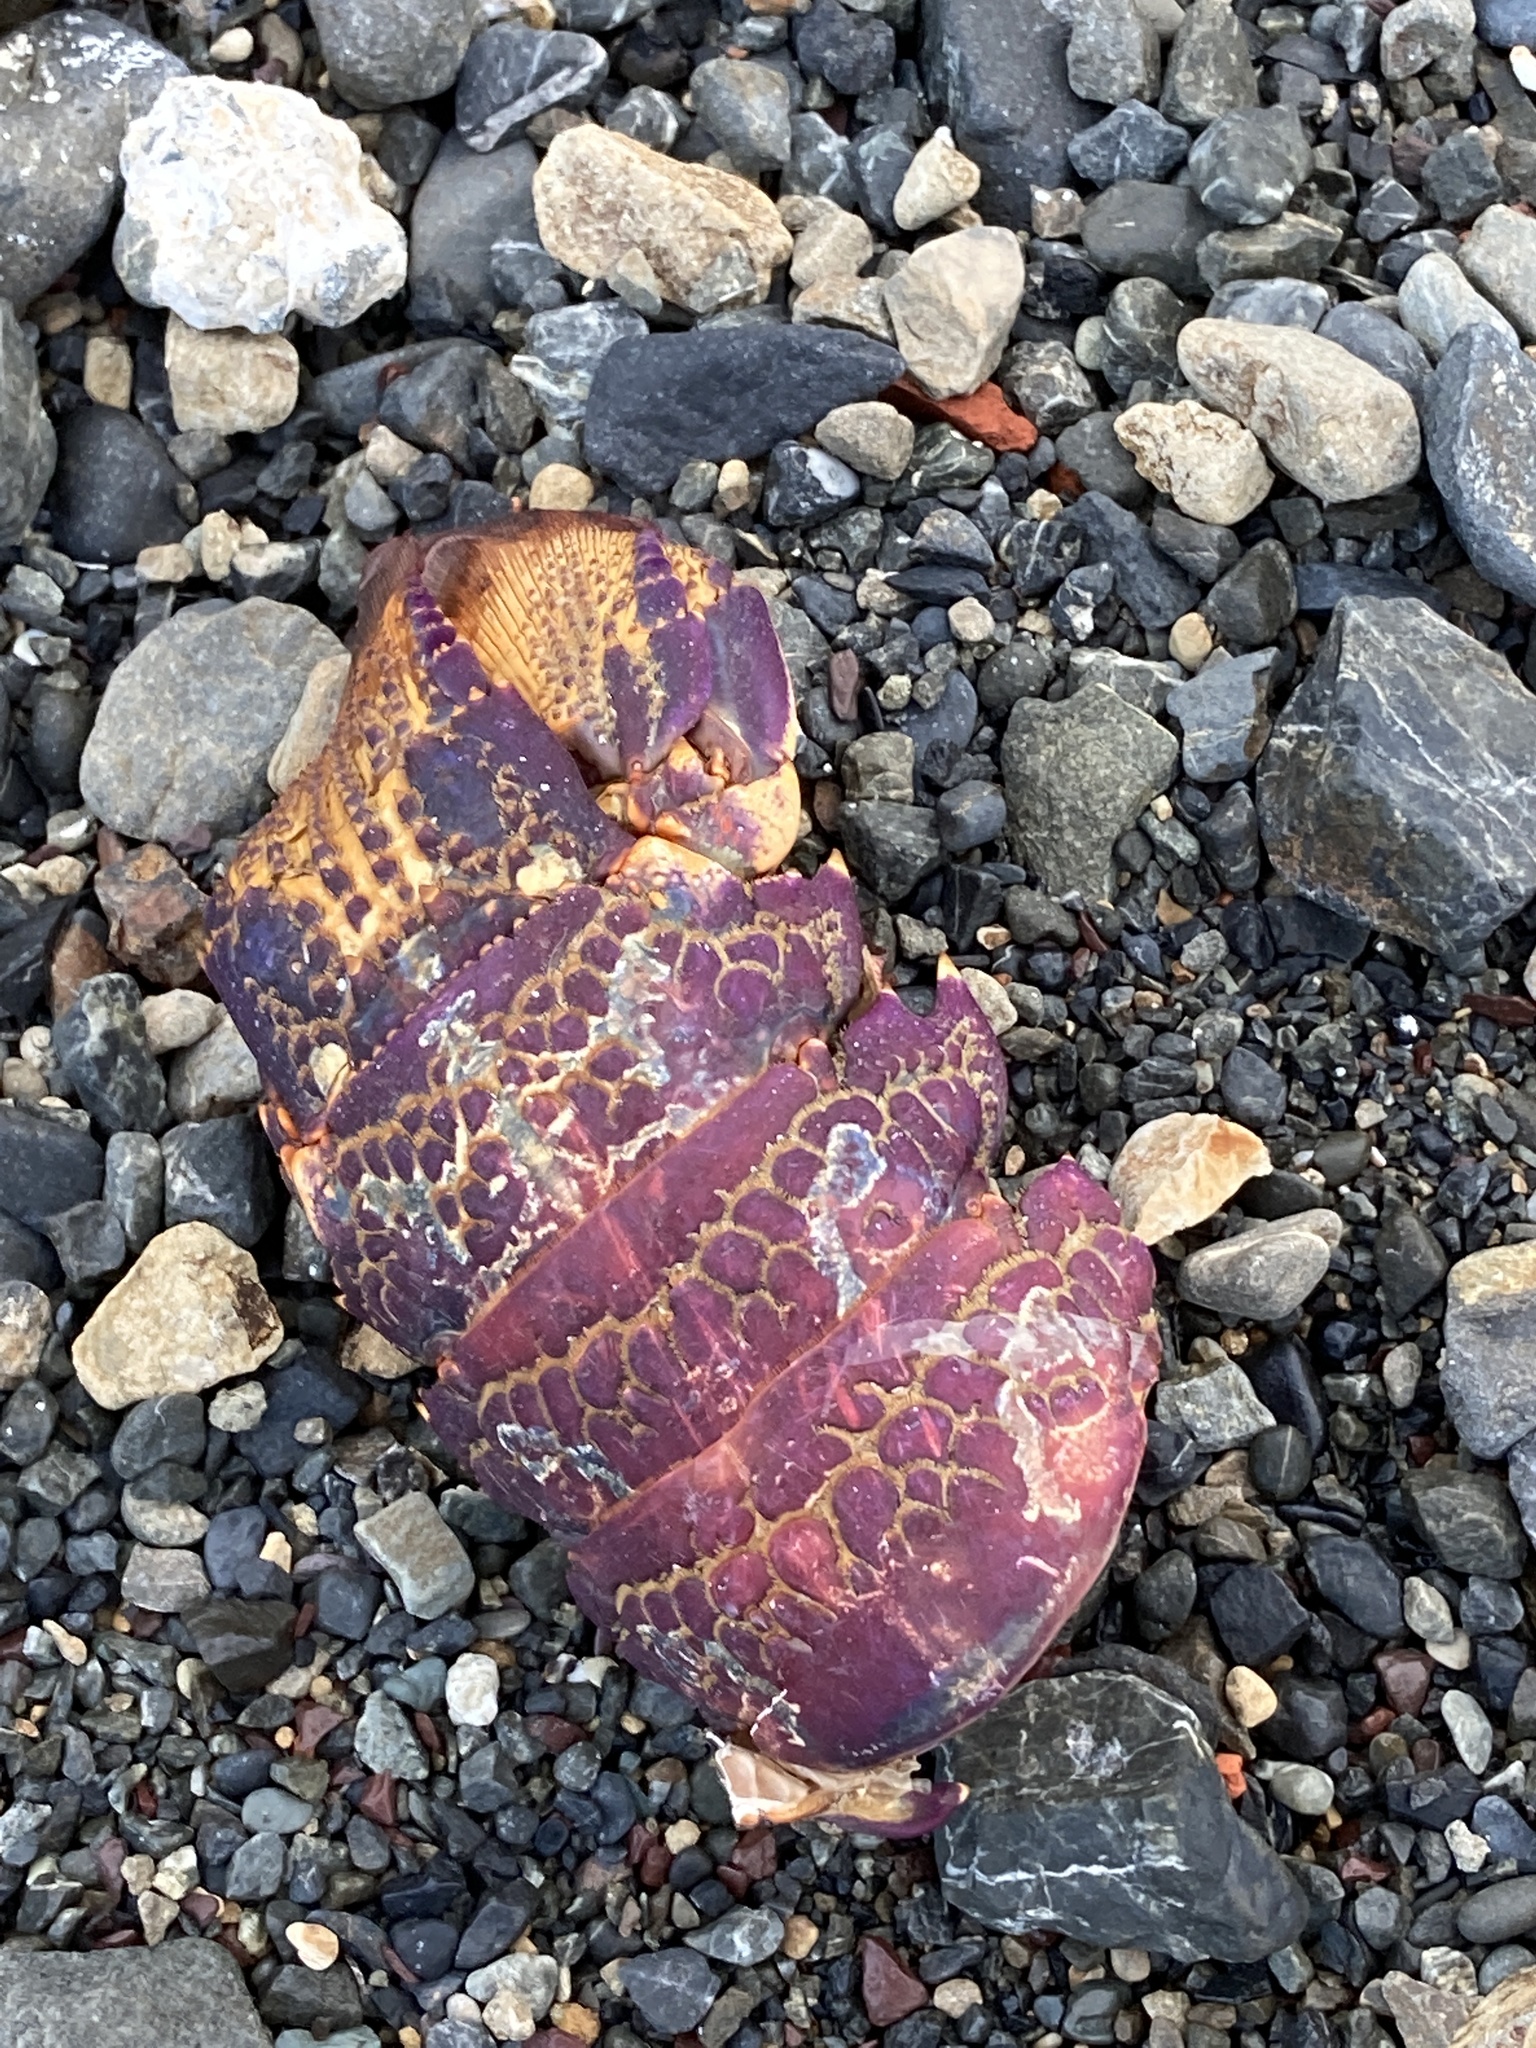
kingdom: Animalia
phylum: Arthropoda
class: Malacostraca
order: Decapoda
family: Palinuridae
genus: Jasus
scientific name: Jasus edwardsii
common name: Red rock lobster
